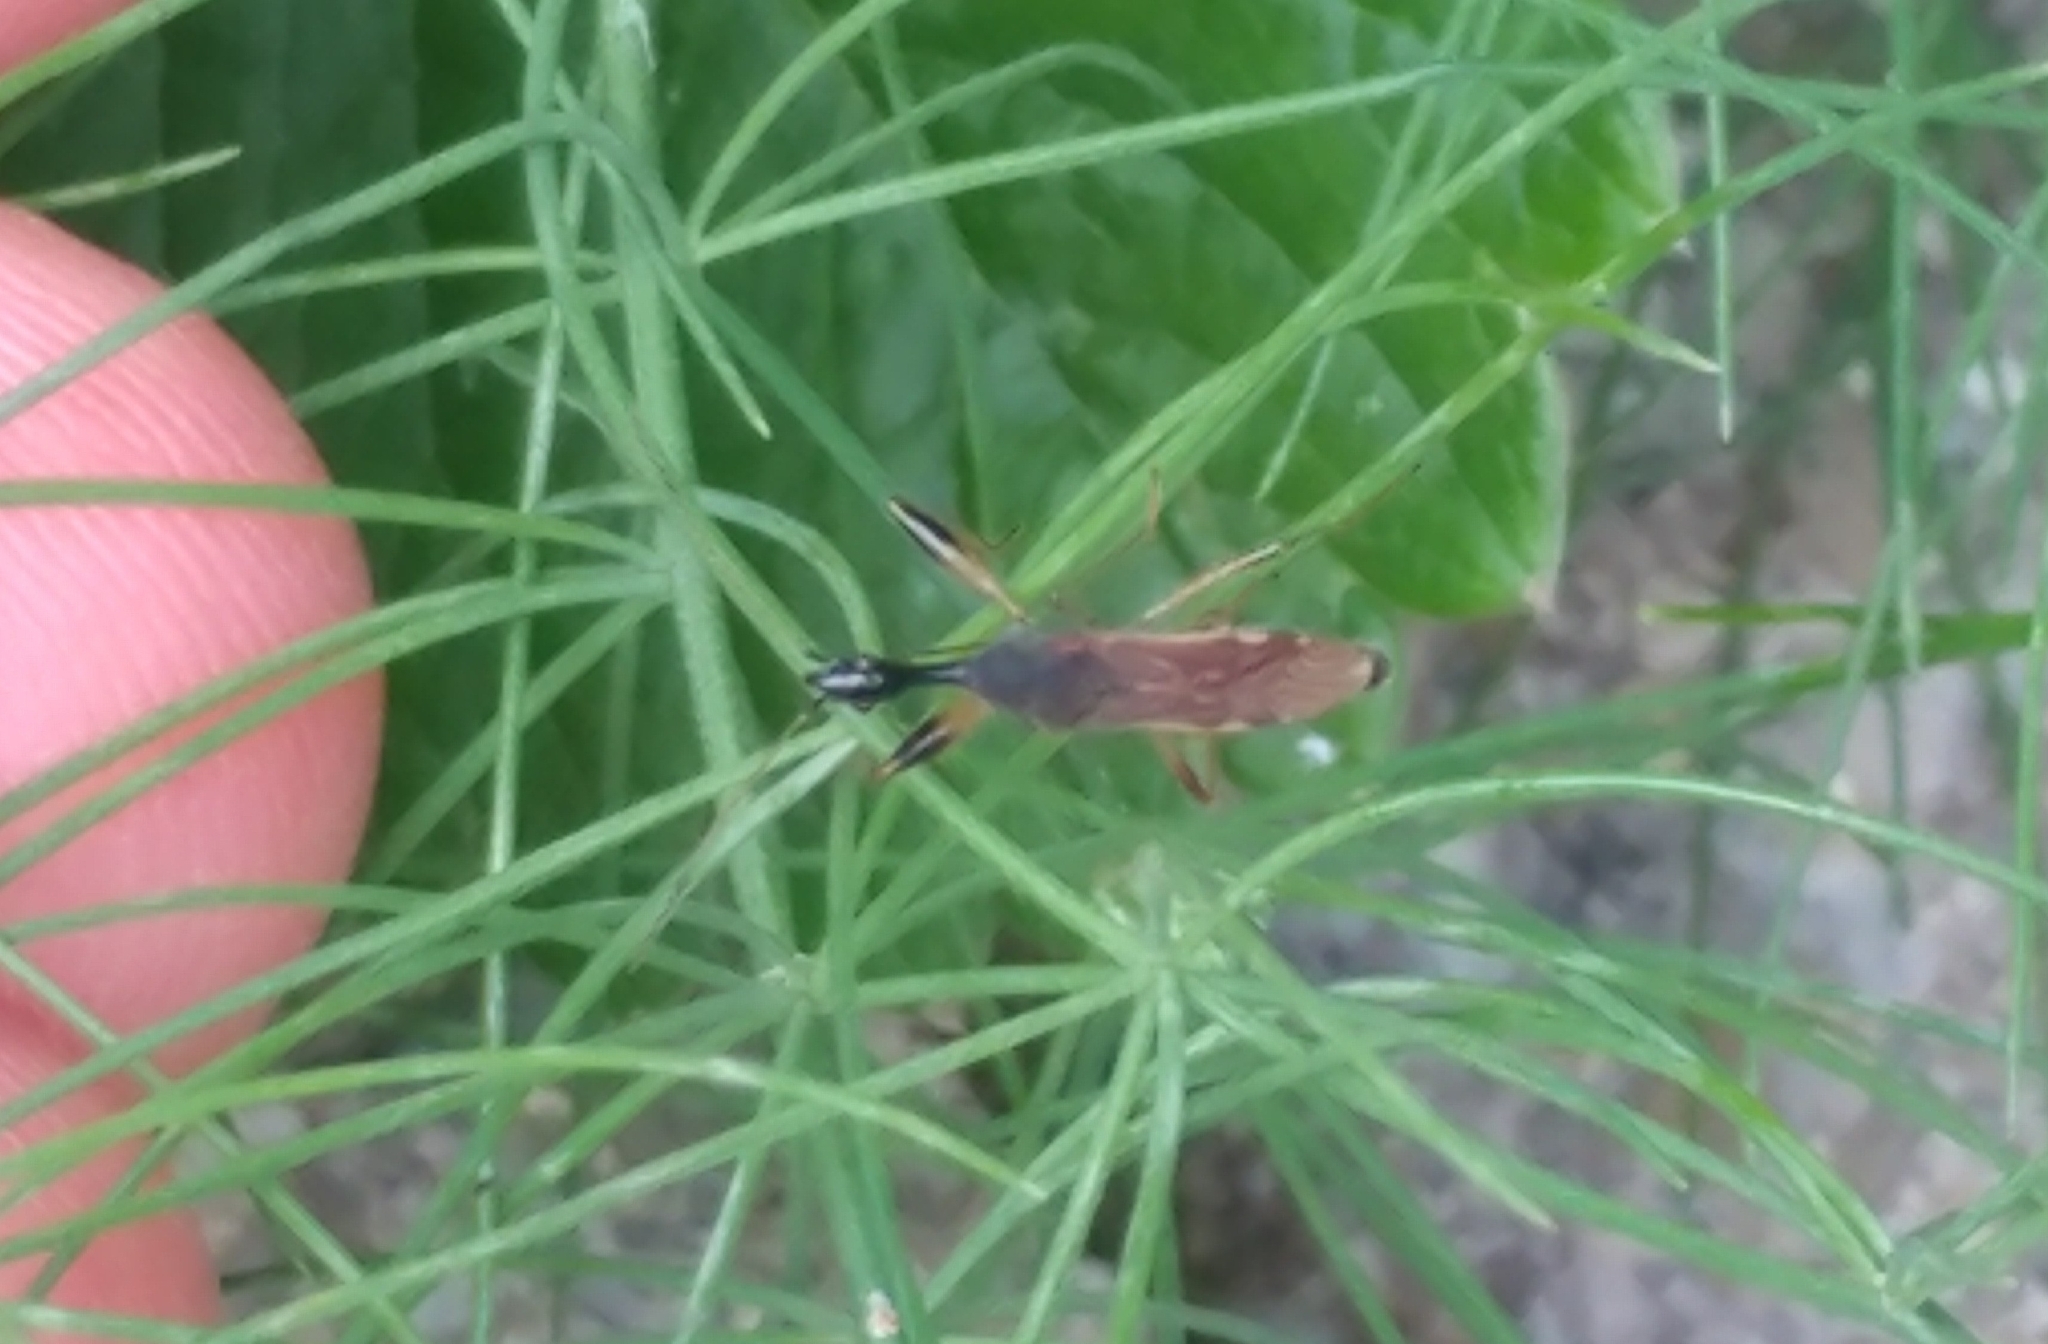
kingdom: Animalia
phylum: Arthropoda
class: Insecta
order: Hemiptera
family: Rhyparochromidae
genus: Myodocha
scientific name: Myodocha serripes
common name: Long-necked seed bug
